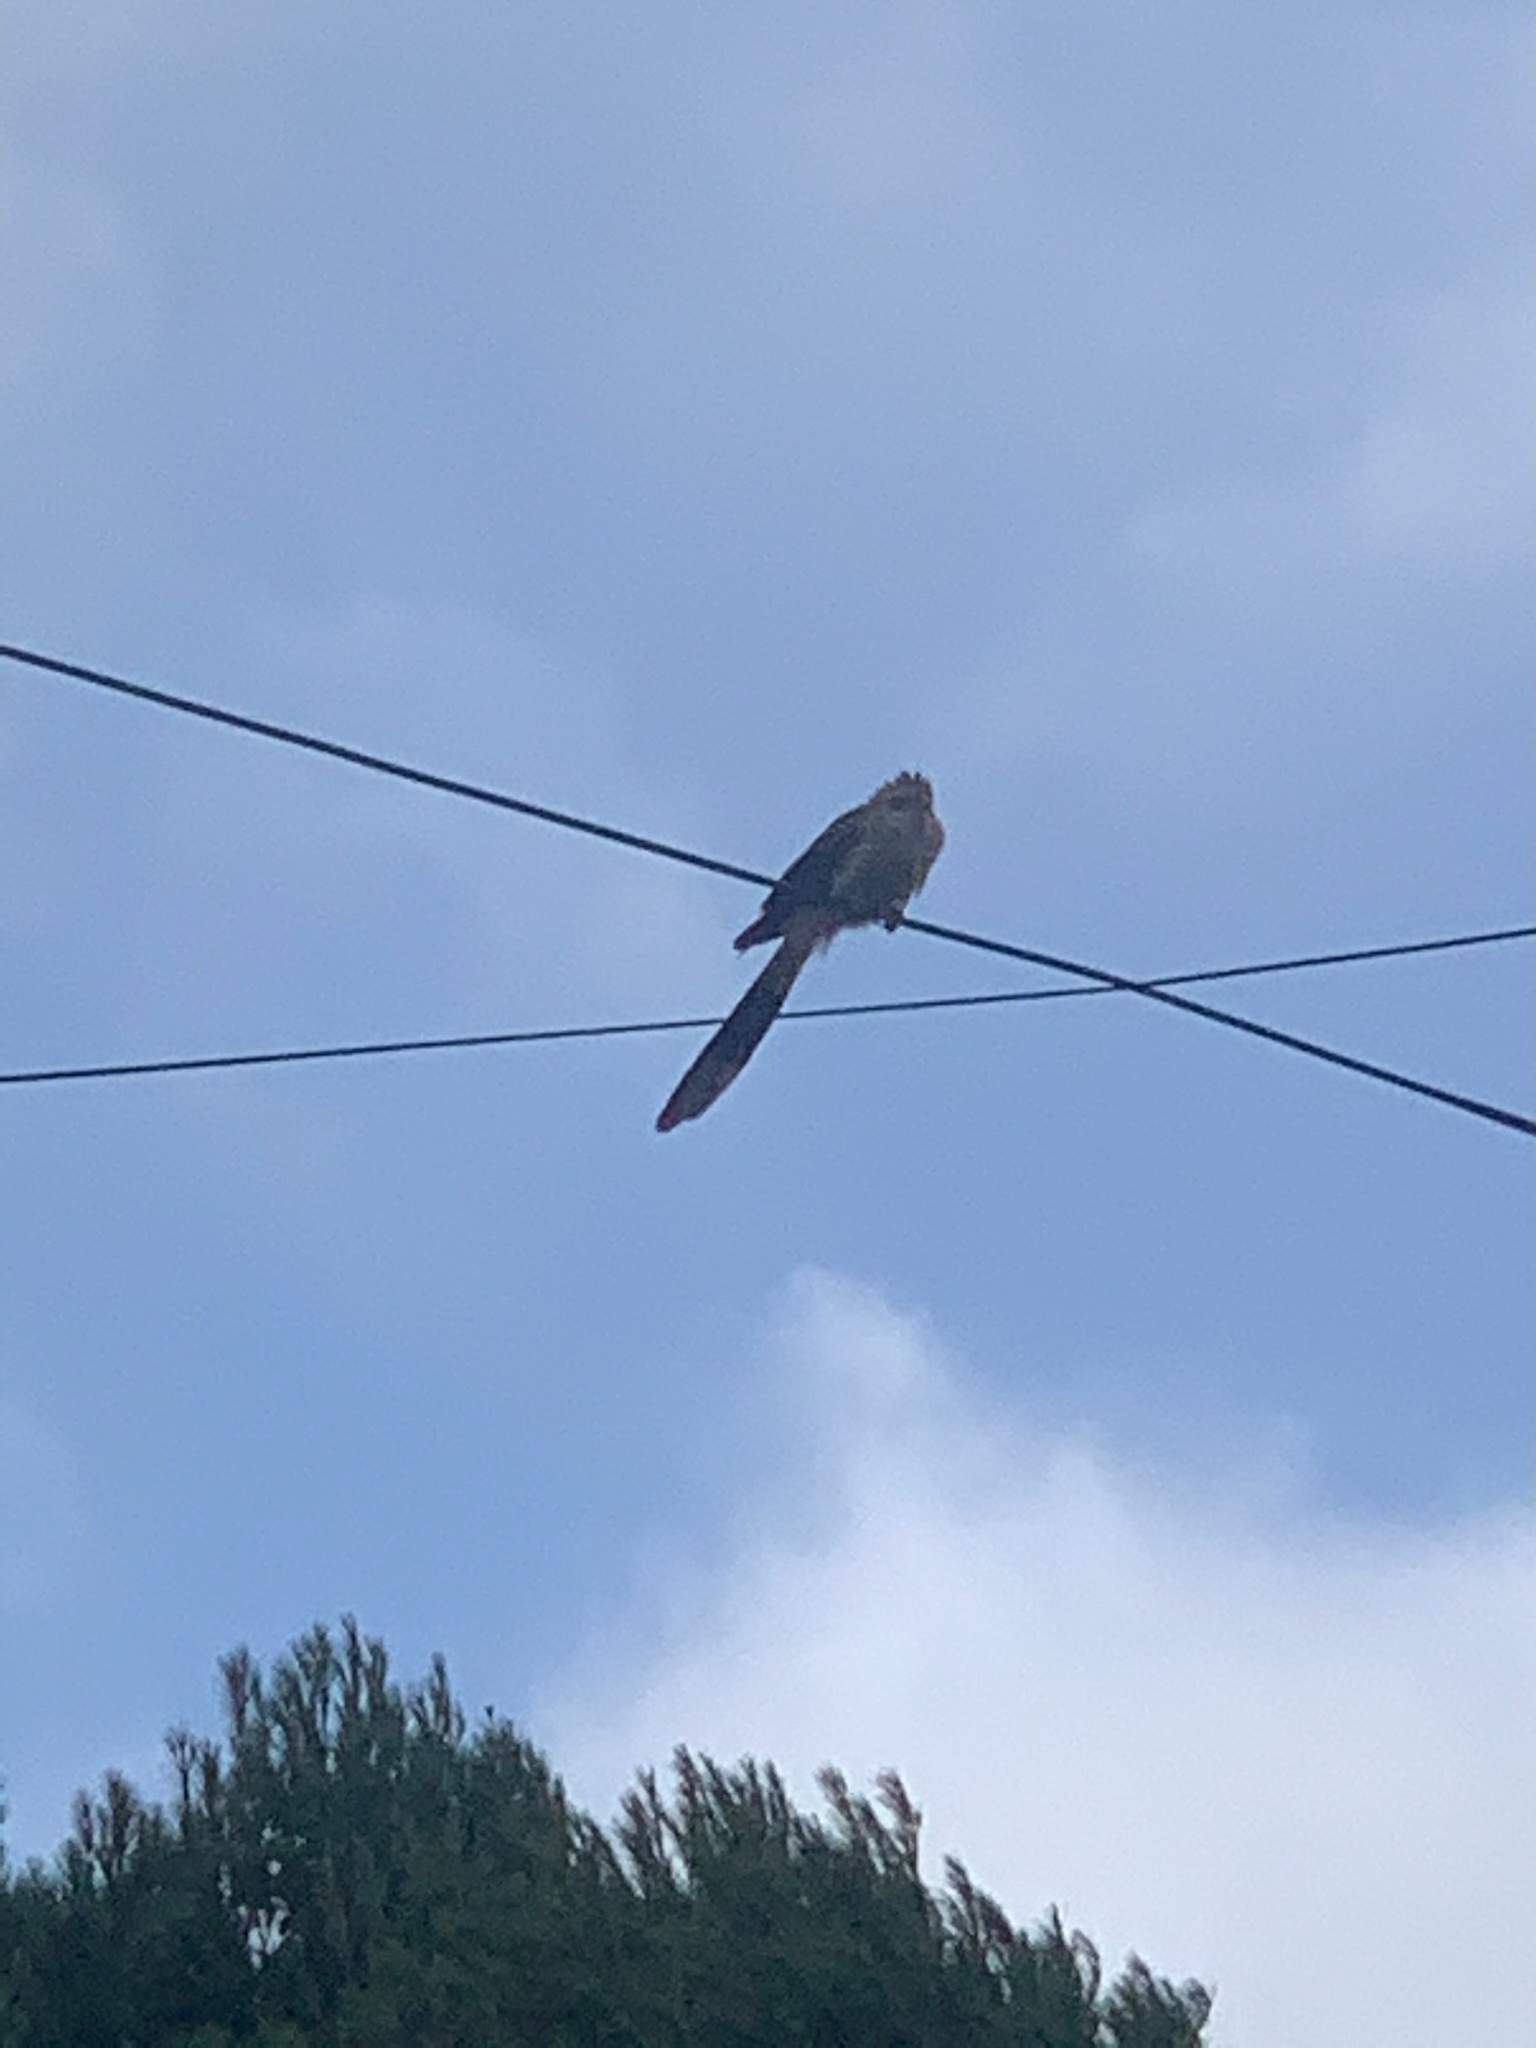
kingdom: Animalia
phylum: Chordata
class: Aves
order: Cuculiformes
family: Cuculidae
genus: Guira
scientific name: Guira guira
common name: Guira cuckoo
